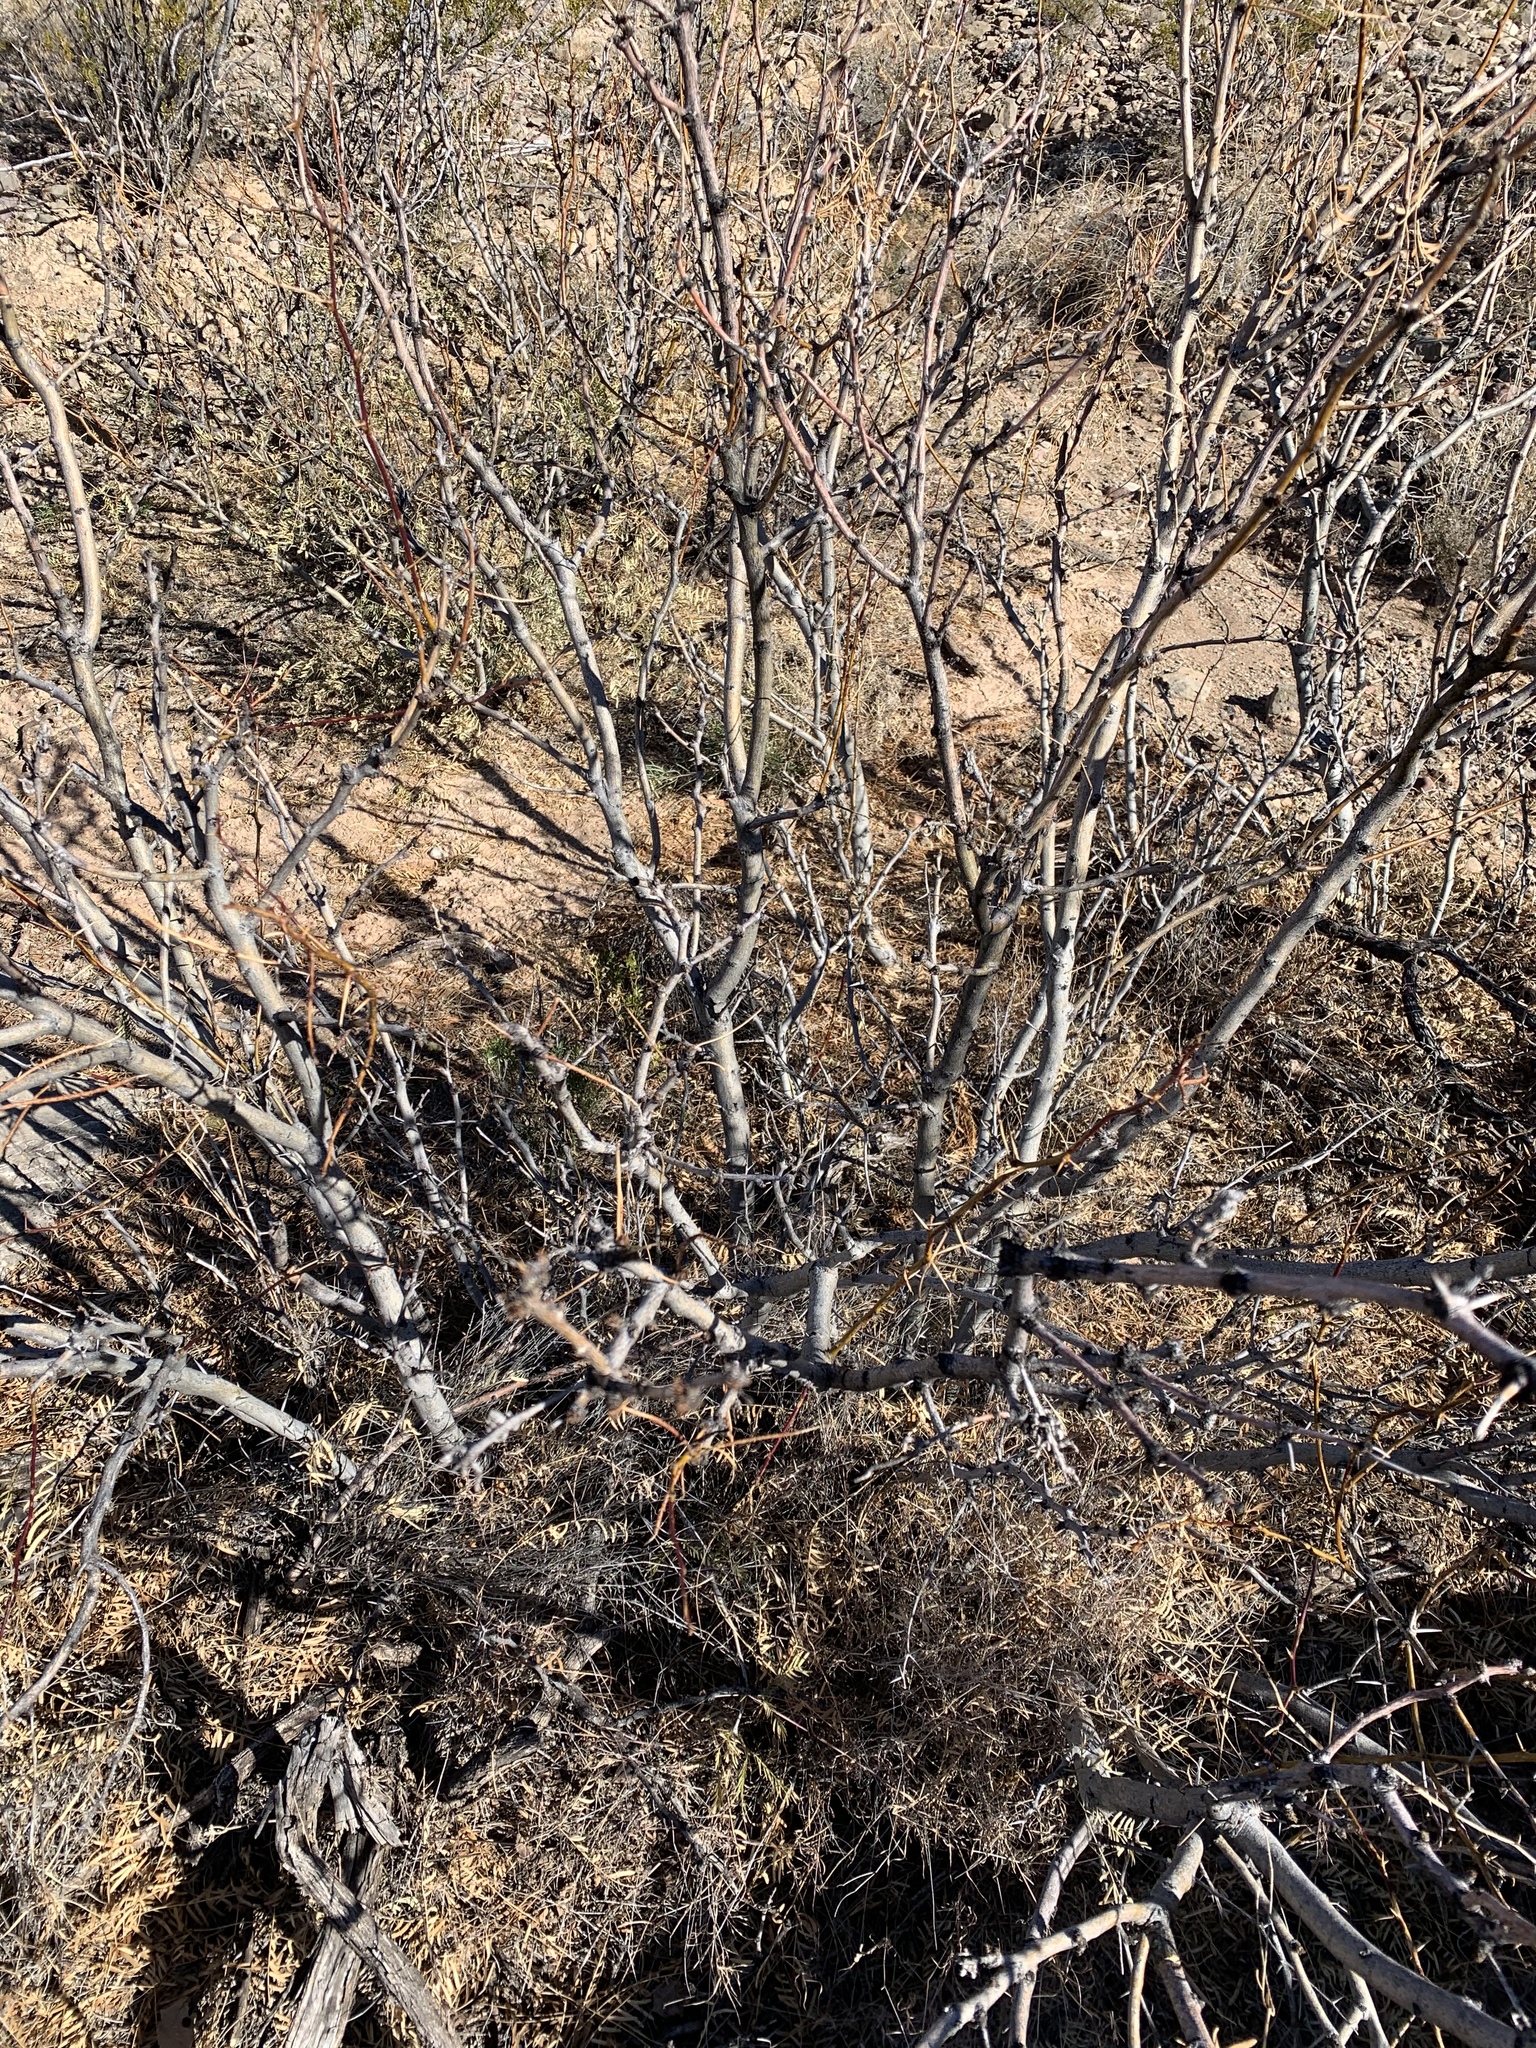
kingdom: Plantae
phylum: Tracheophyta
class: Magnoliopsida
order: Fabales
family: Fabaceae
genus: Prosopis
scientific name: Prosopis glandulosa
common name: Honey mesquite
